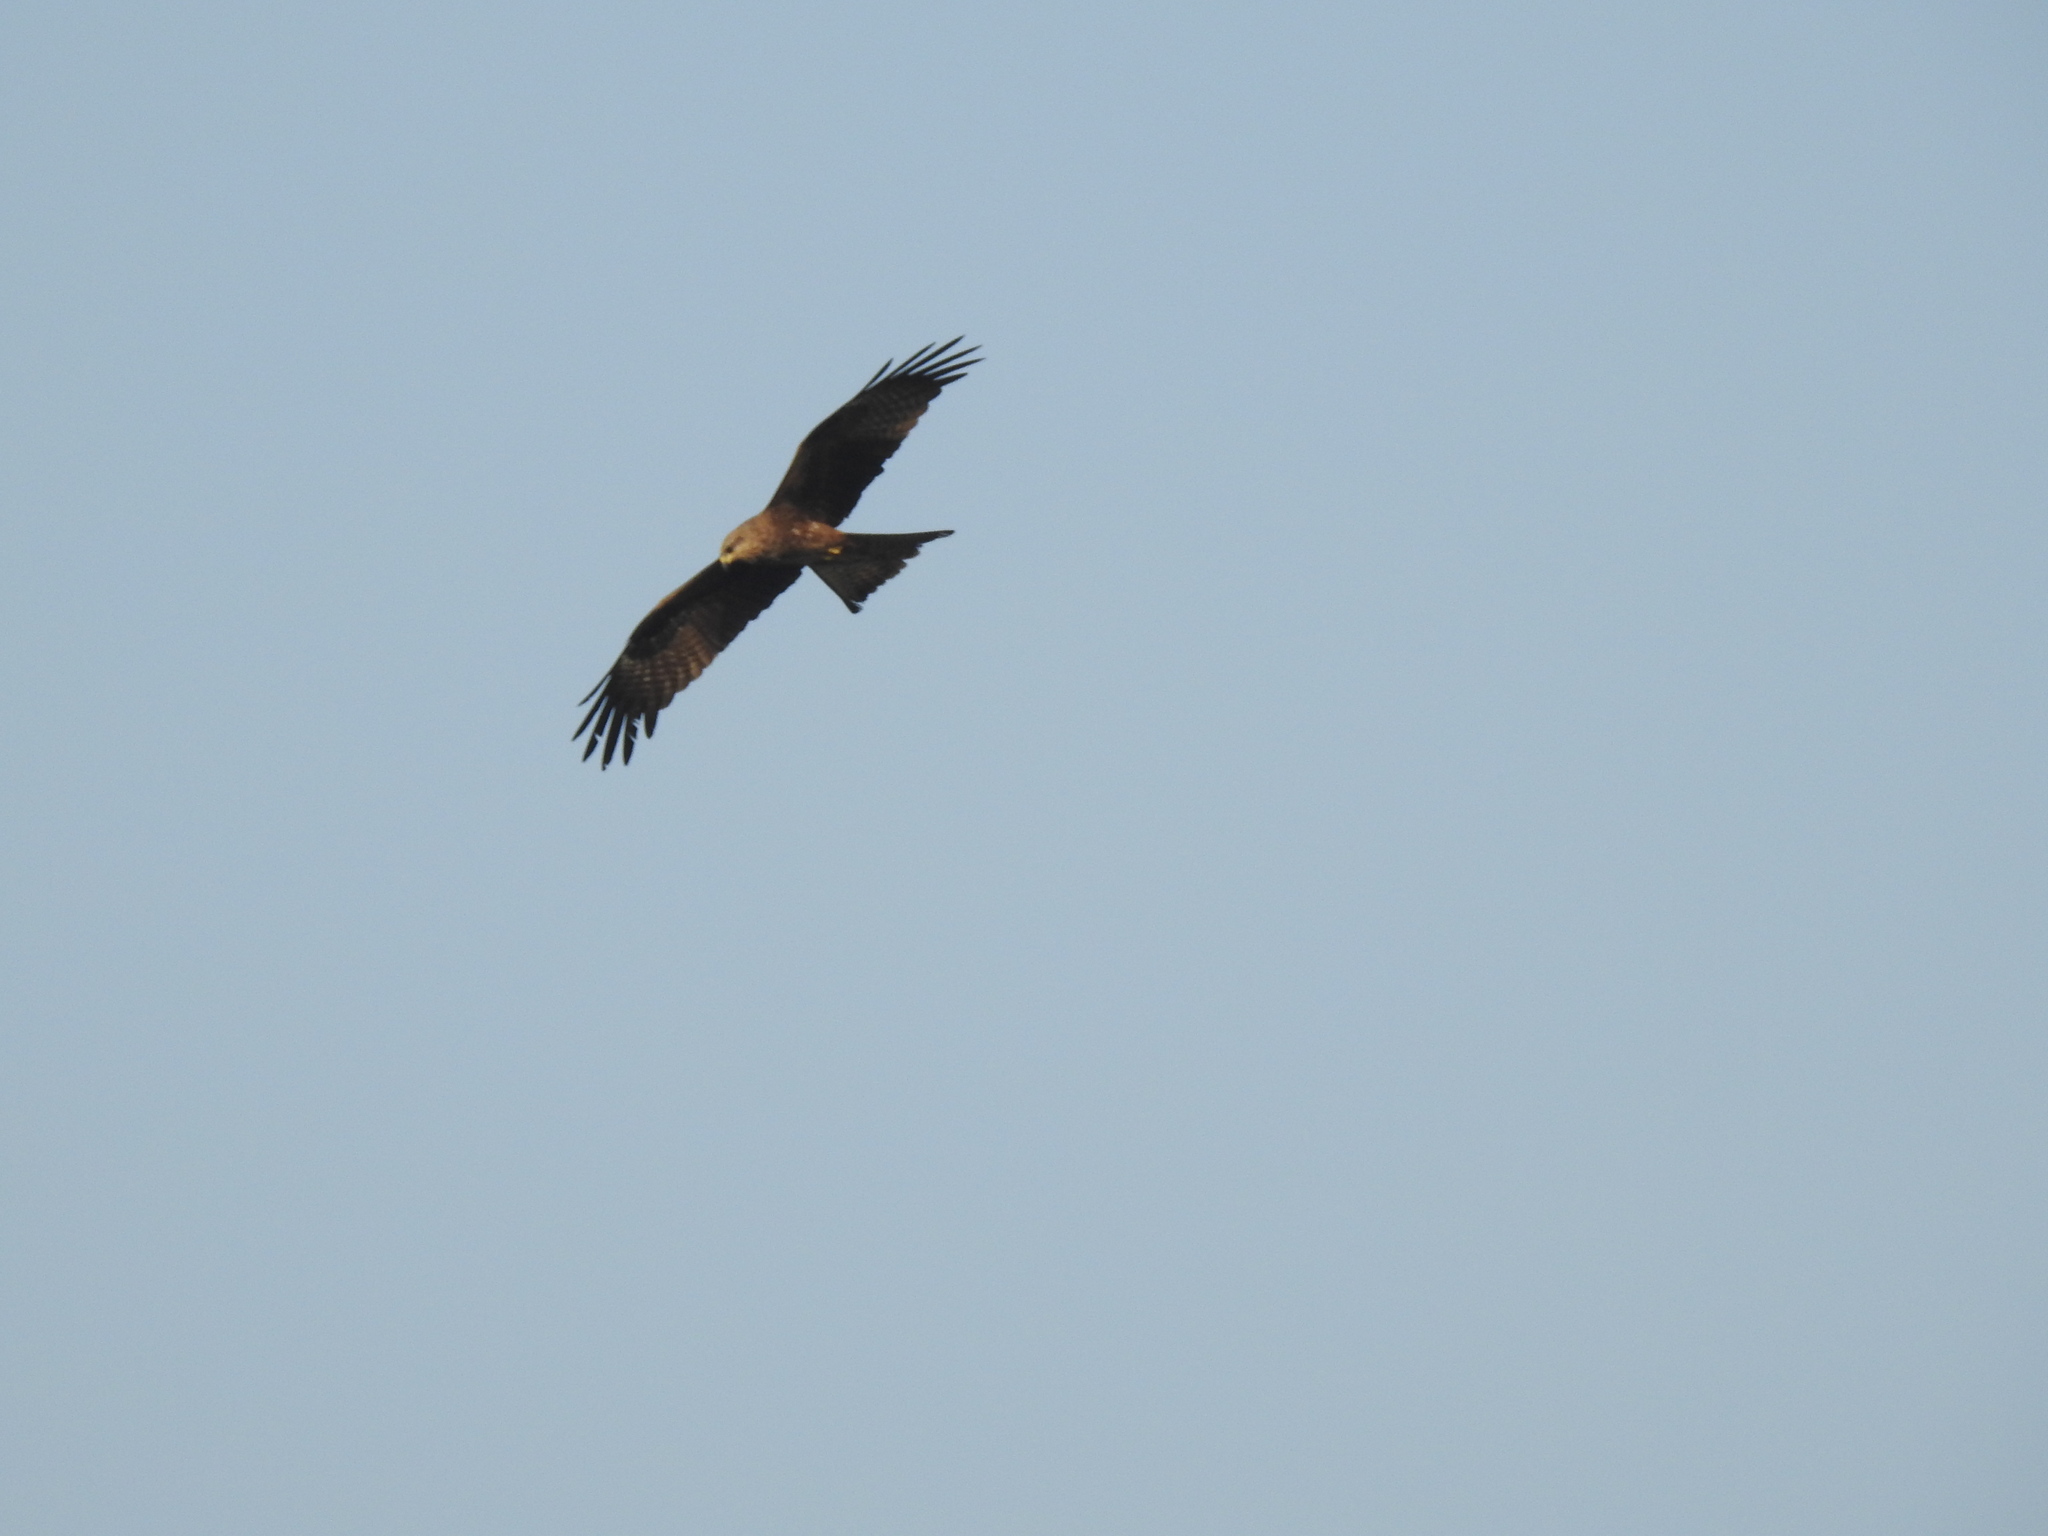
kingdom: Animalia
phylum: Chordata
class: Aves
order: Accipitriformes
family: Accipitridae
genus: Milvus
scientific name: Milvus migrans
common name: Black kite
